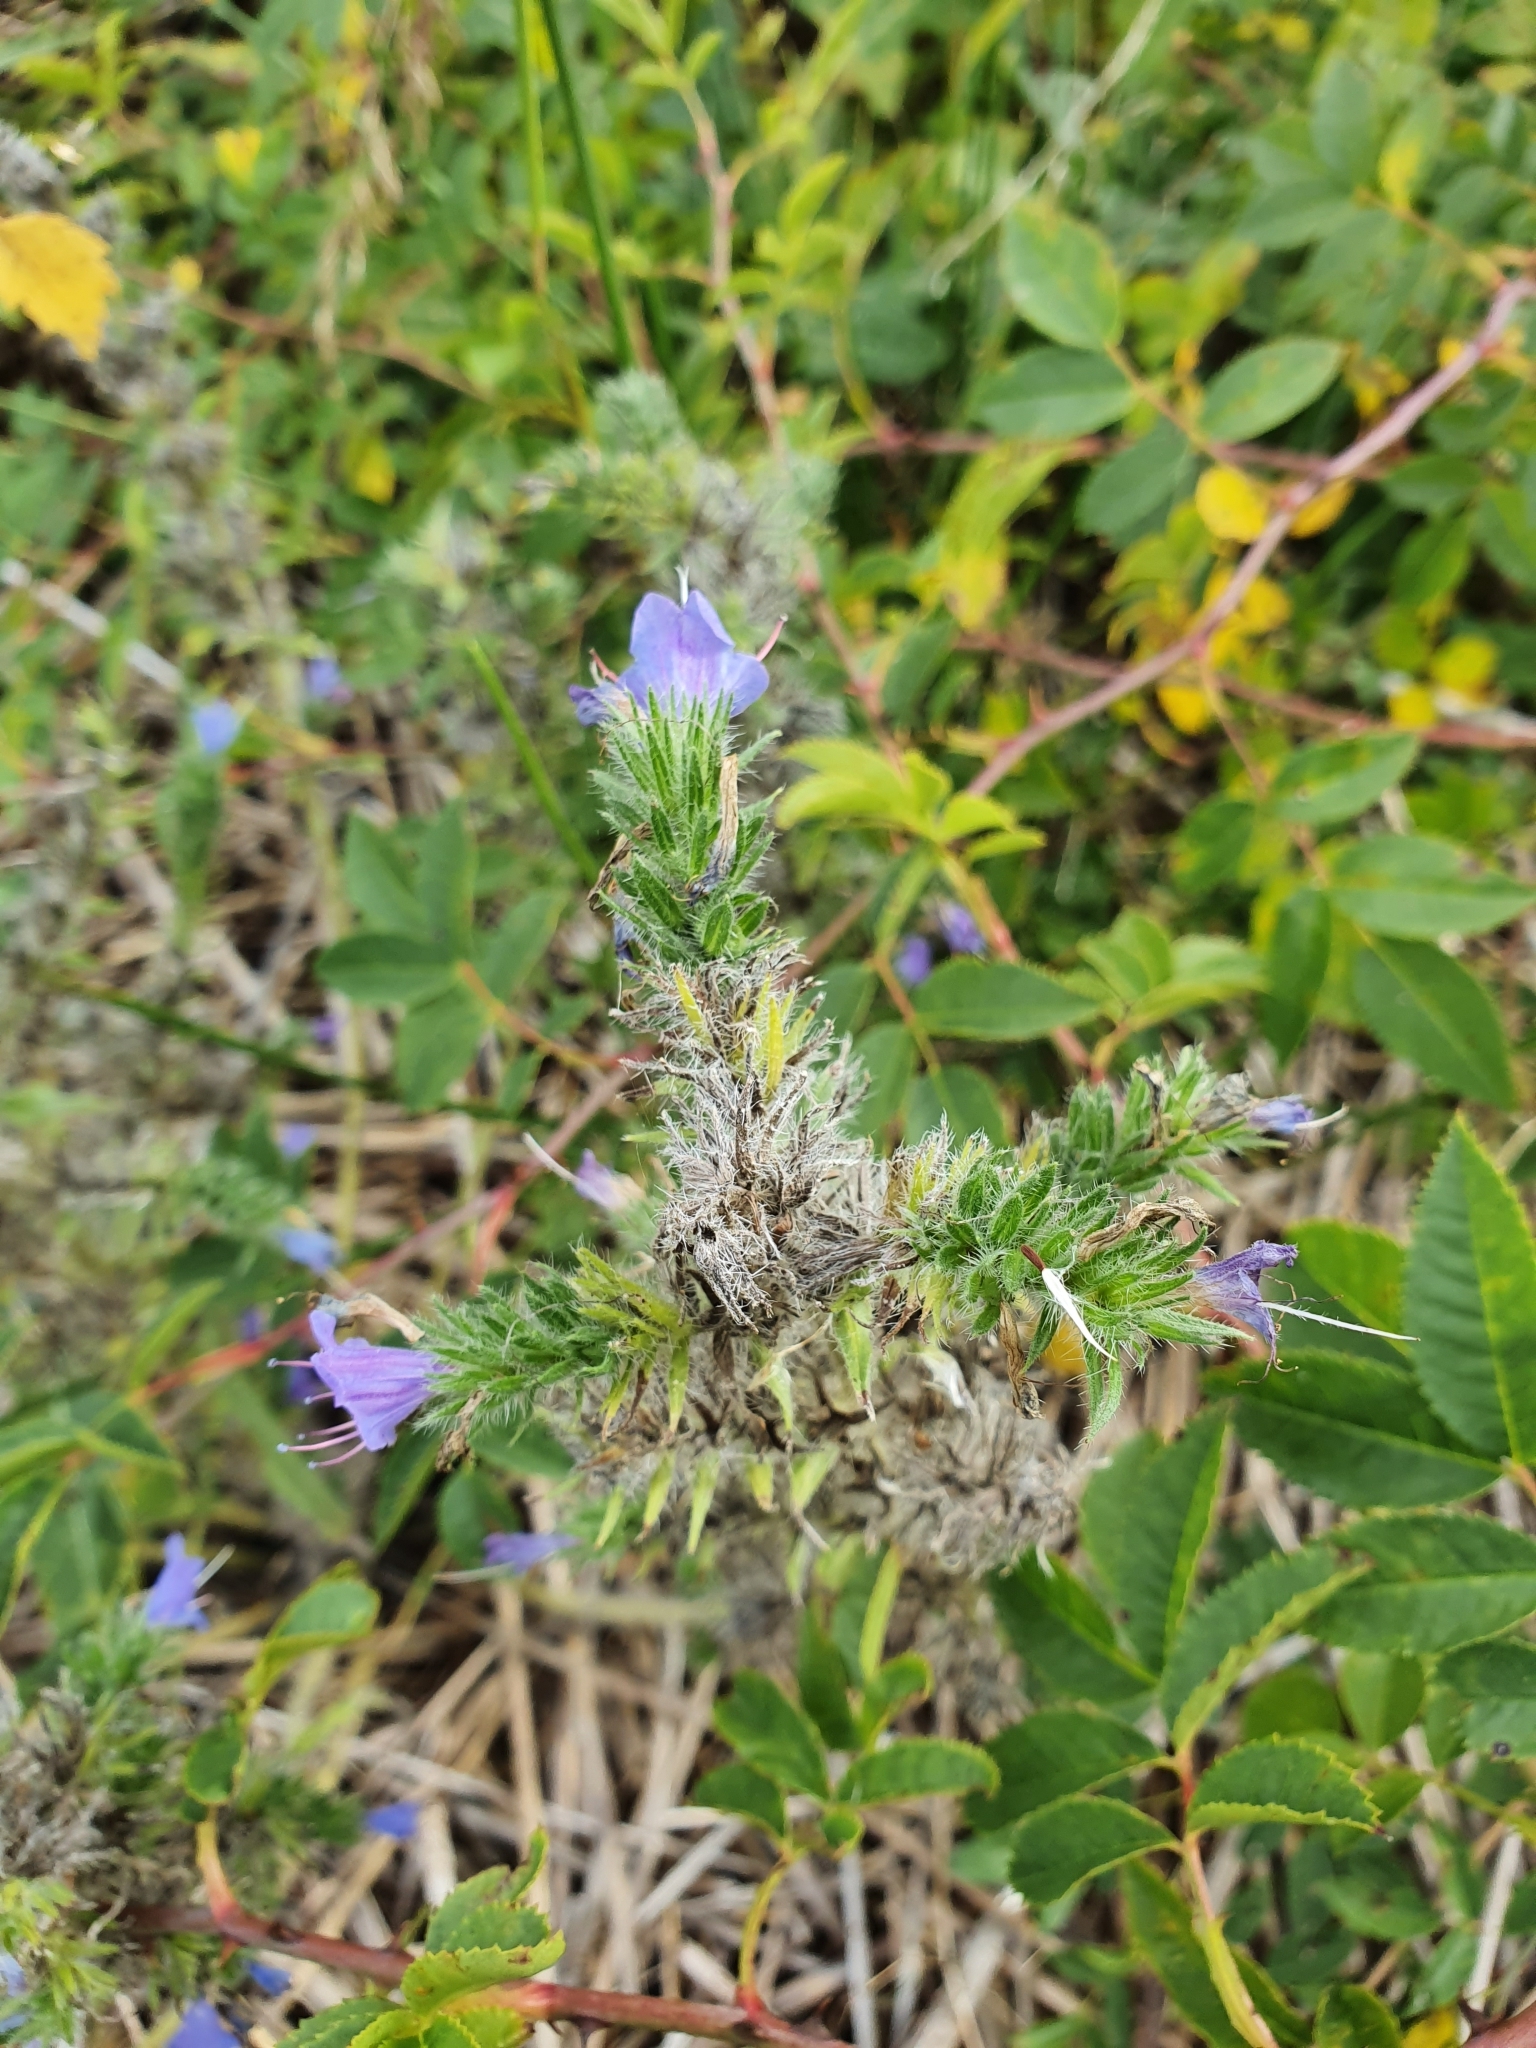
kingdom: Plantae
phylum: Tracheophyta
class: Magnoliopsida
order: Boraginales
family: Boraginaceae
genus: Echium
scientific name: Echium vulgare
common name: Common viper's bugloss
